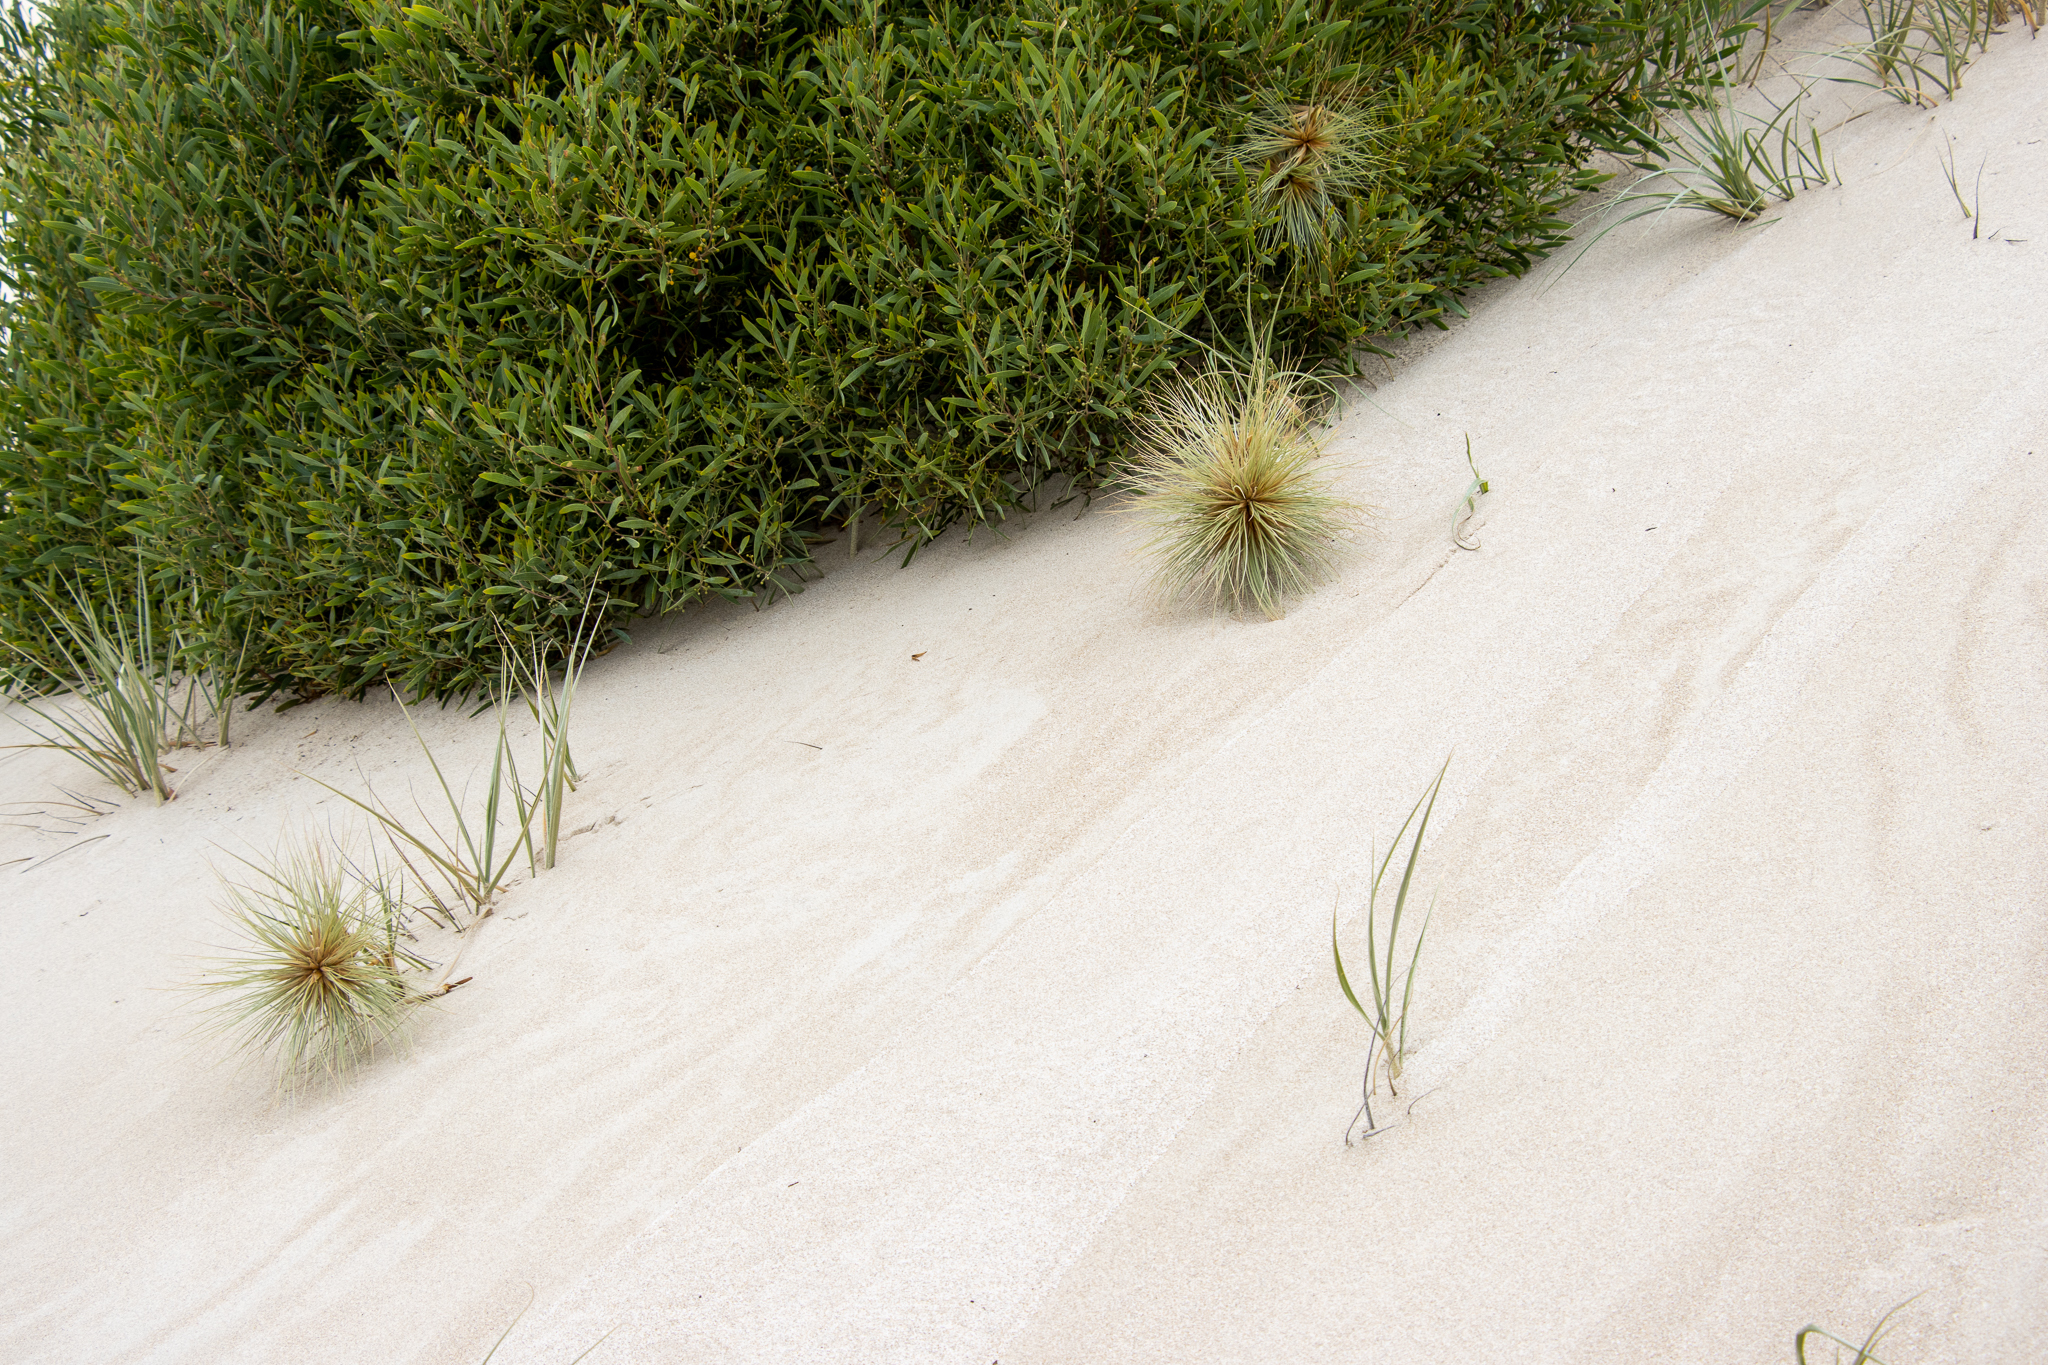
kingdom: Plantae
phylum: Tracheophyta
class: Liliopsida
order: Poales
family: Poaceae
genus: Spinifex
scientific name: Spinifex hirsutus
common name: Hairy spinifex
